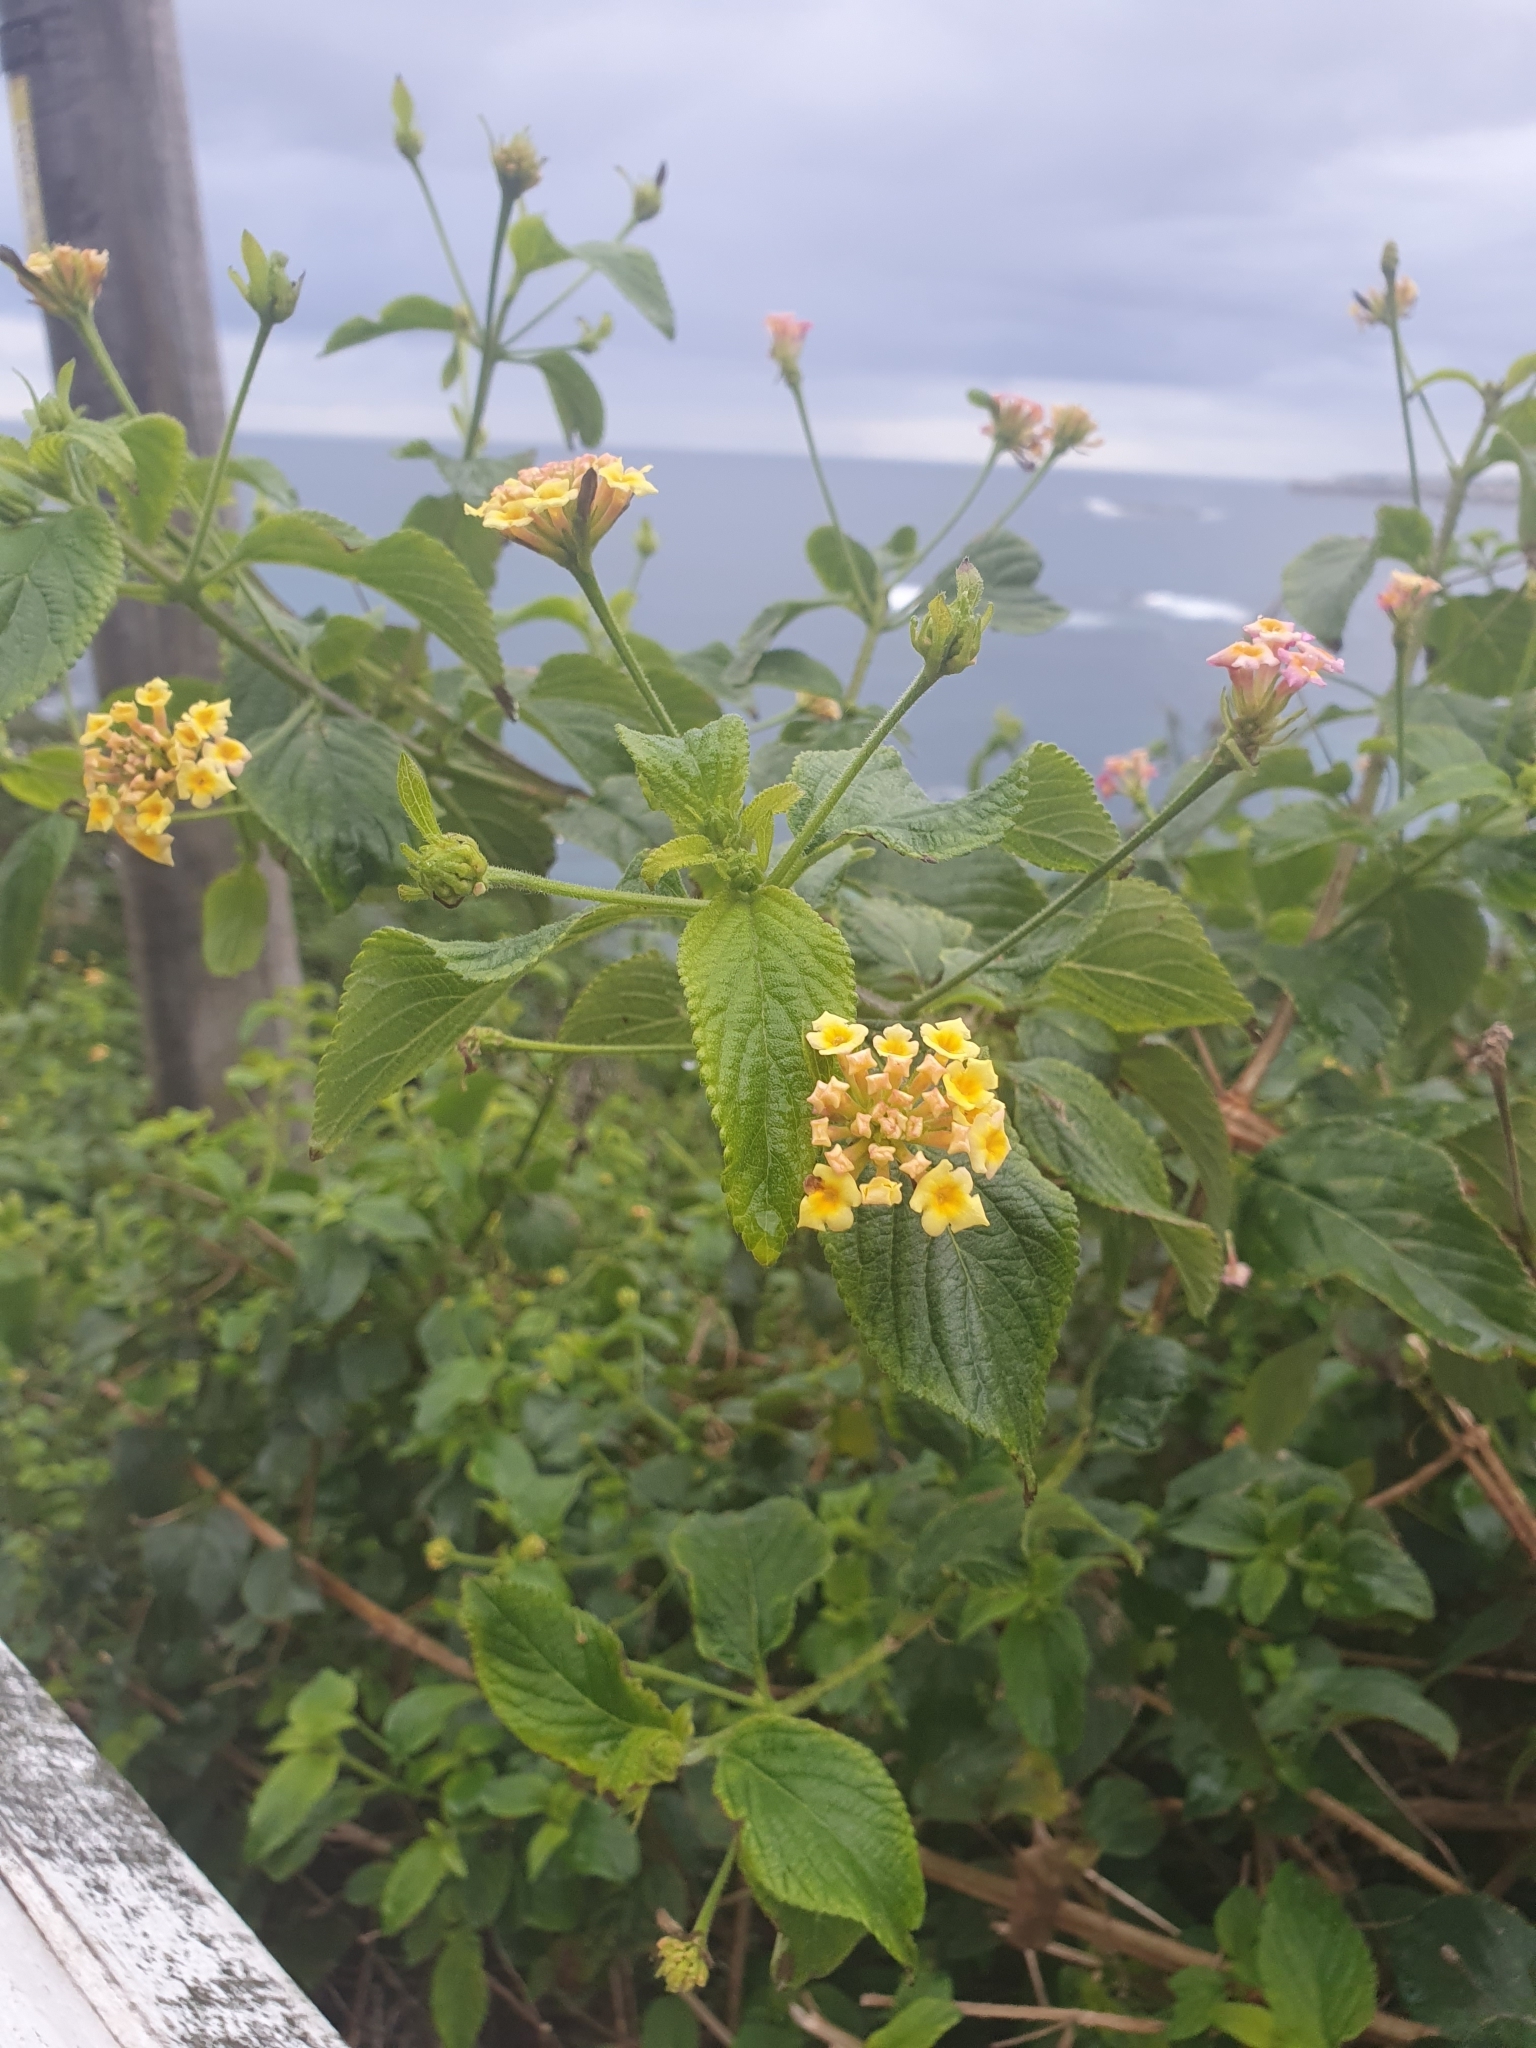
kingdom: Plantae
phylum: Tracheophyta
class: Magnoliopsida
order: Lamiales
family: Verbenaceae
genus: Lantana
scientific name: Lantana camara
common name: Lantana
